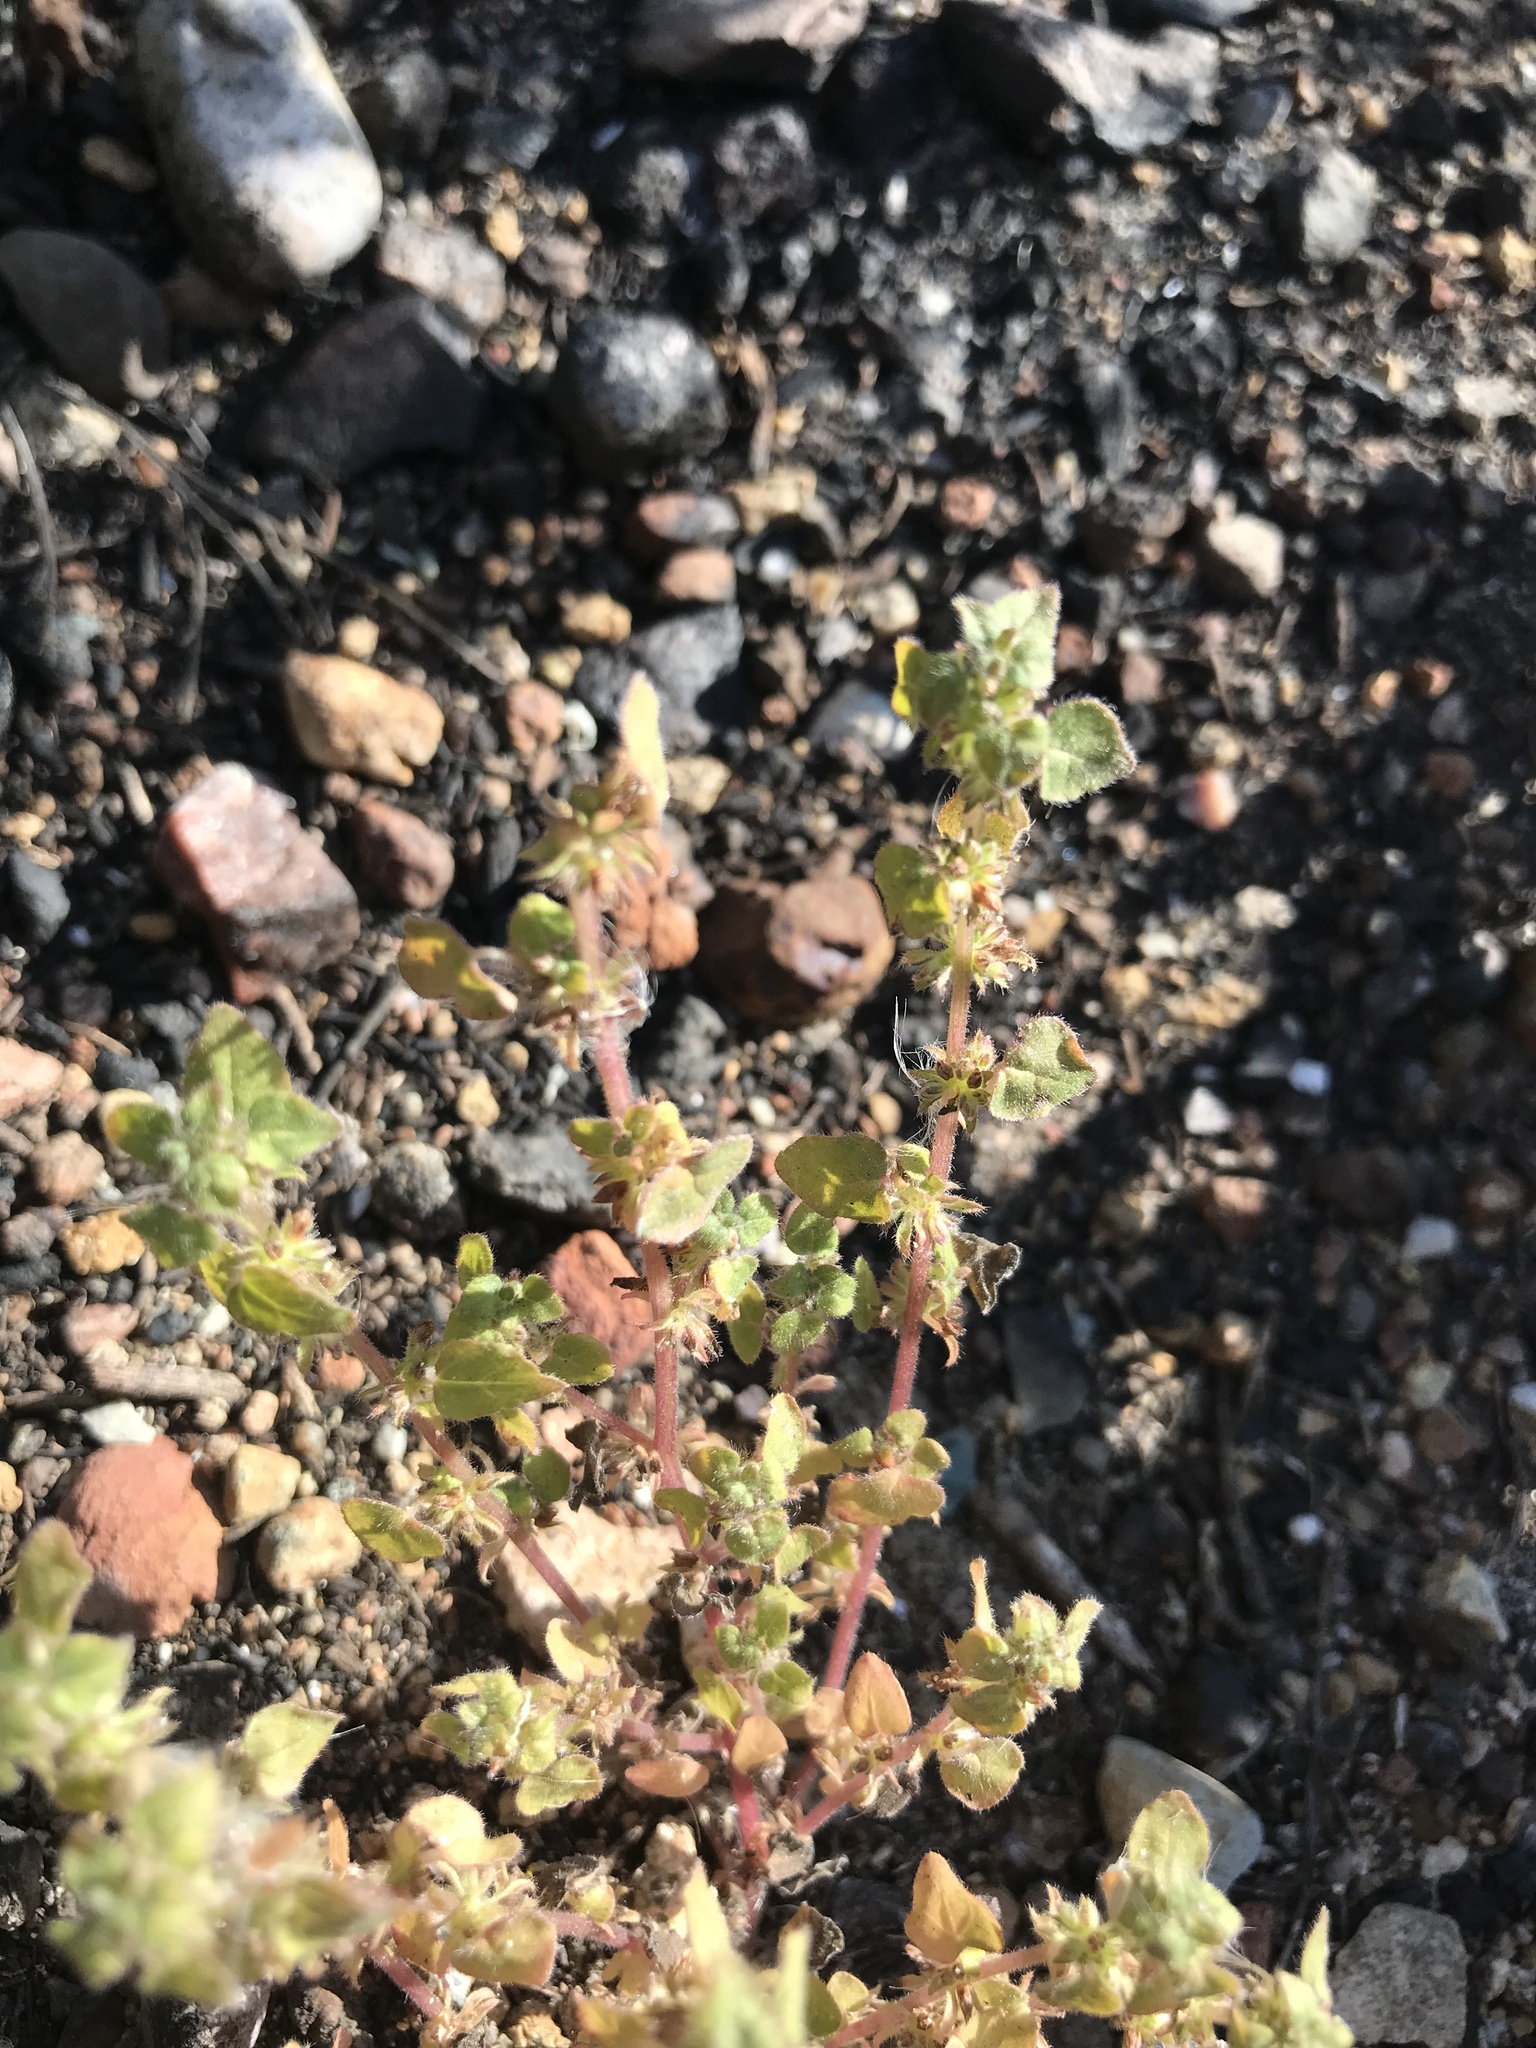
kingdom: Plantae
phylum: Tracheophyta
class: Magnoliopsida
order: Rosales
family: Urticaceae
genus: Parietaria
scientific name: Parietaria hespera
